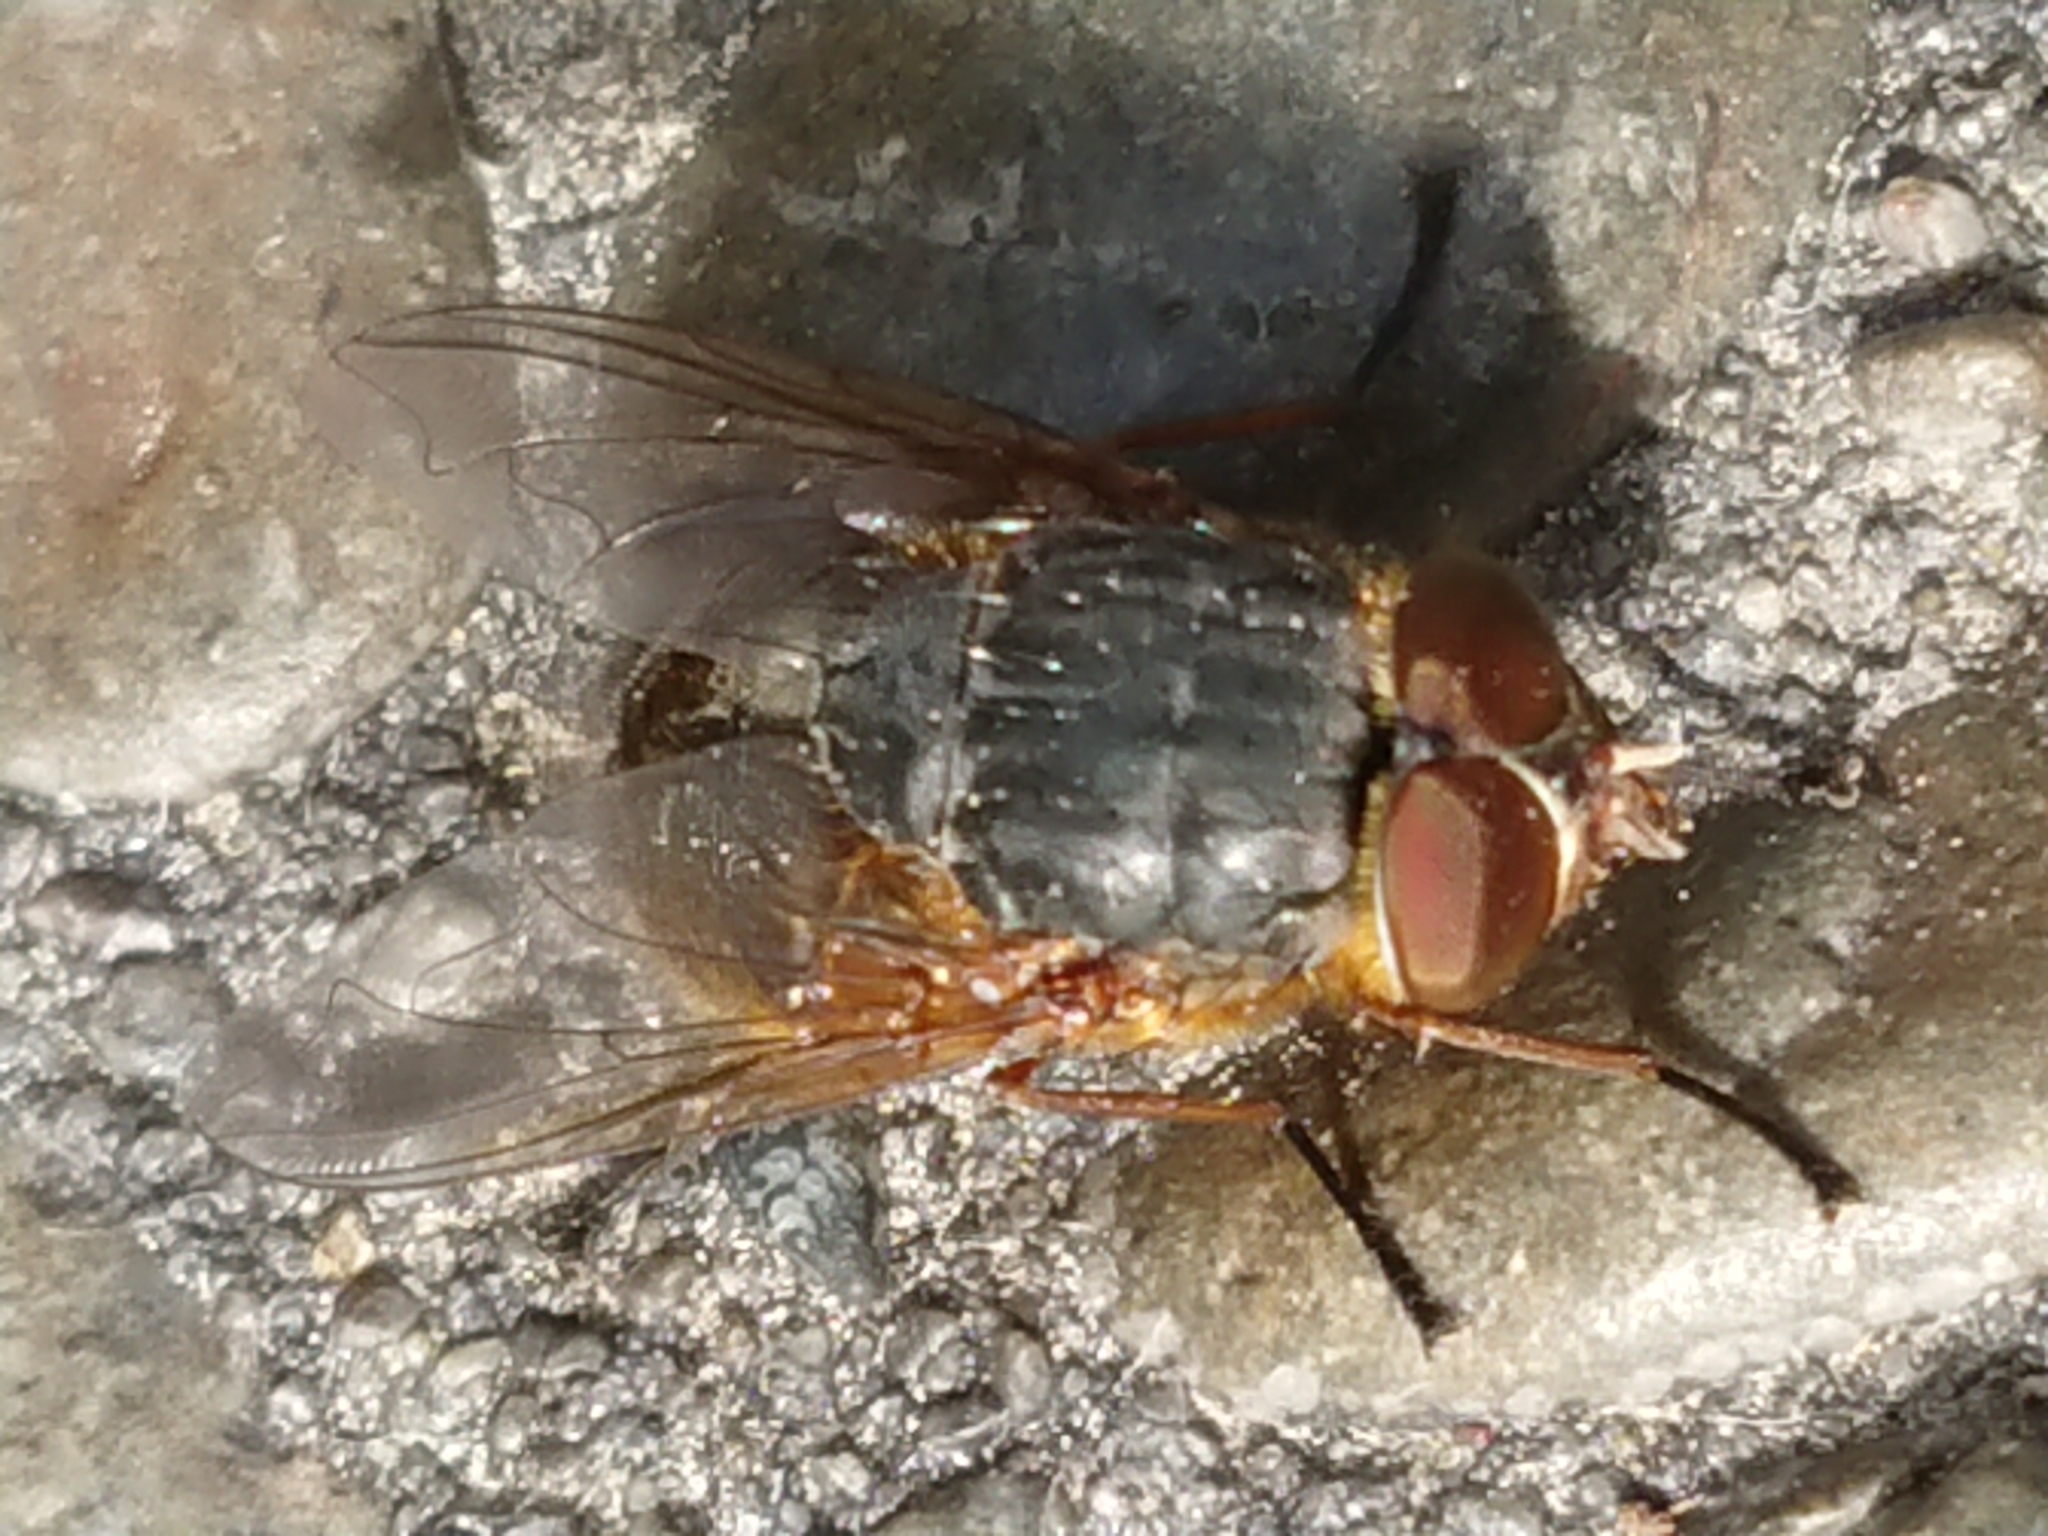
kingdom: Animalia
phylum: Arthropoda
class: Insecta
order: Diptera
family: Calliphoridae
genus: Calliphora
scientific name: Calliphora stygia
